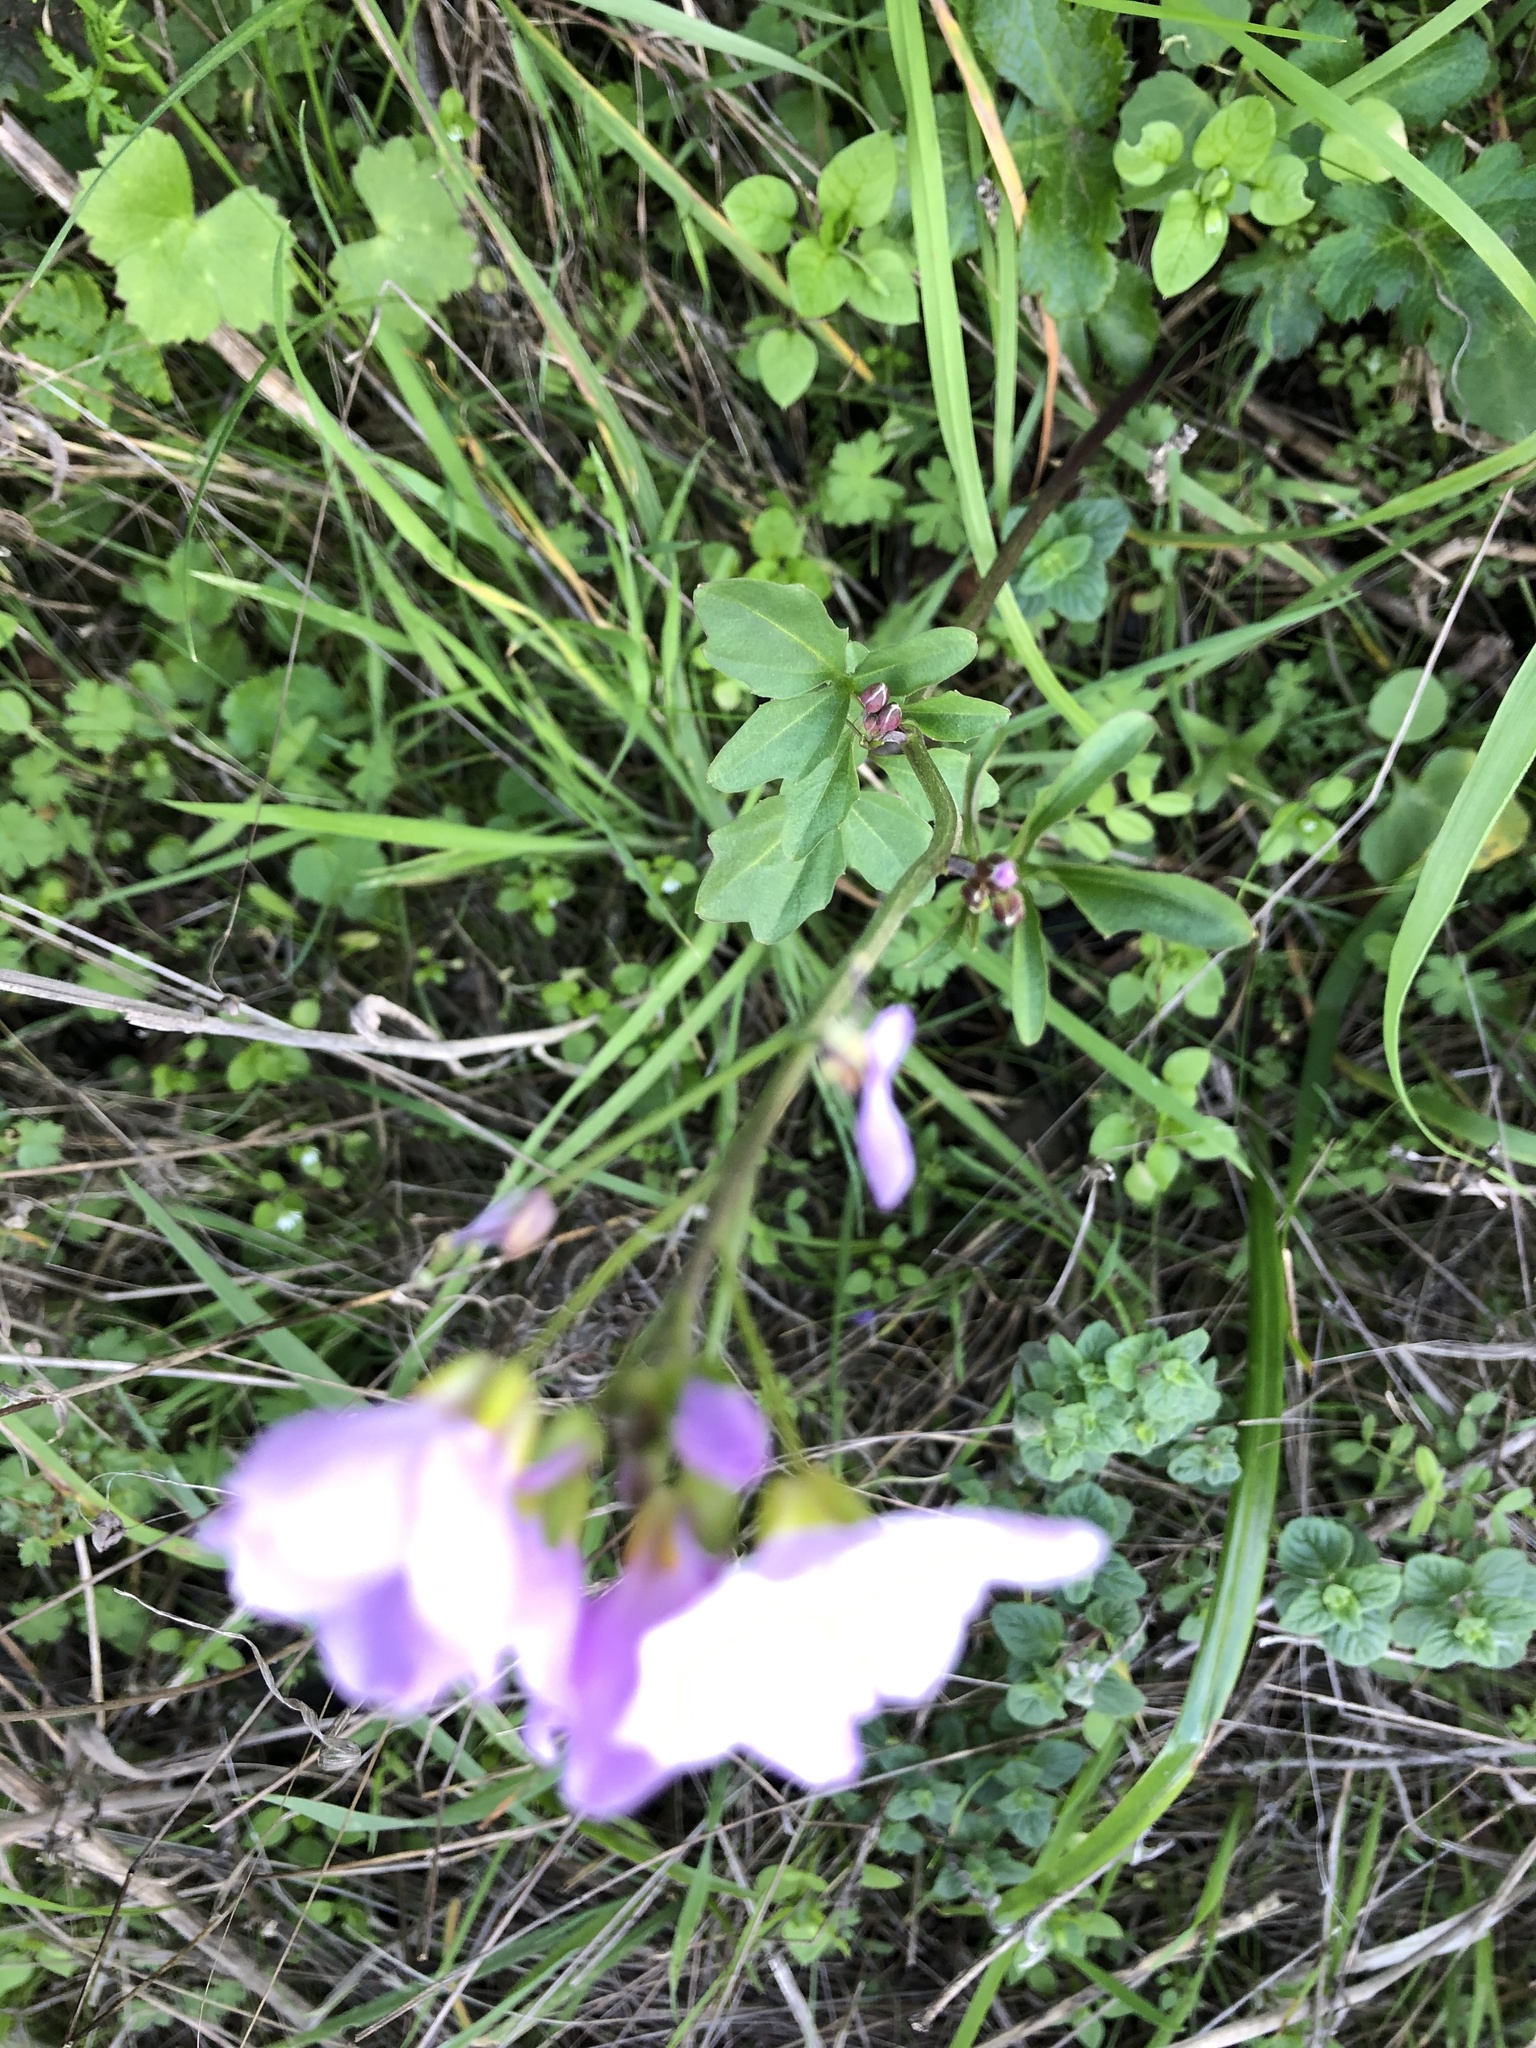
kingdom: Plantae
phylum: Tracheophyta
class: Magnoliopsida
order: Brassicales
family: Brassicaceae
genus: Cardamine
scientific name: Cardamine californica
